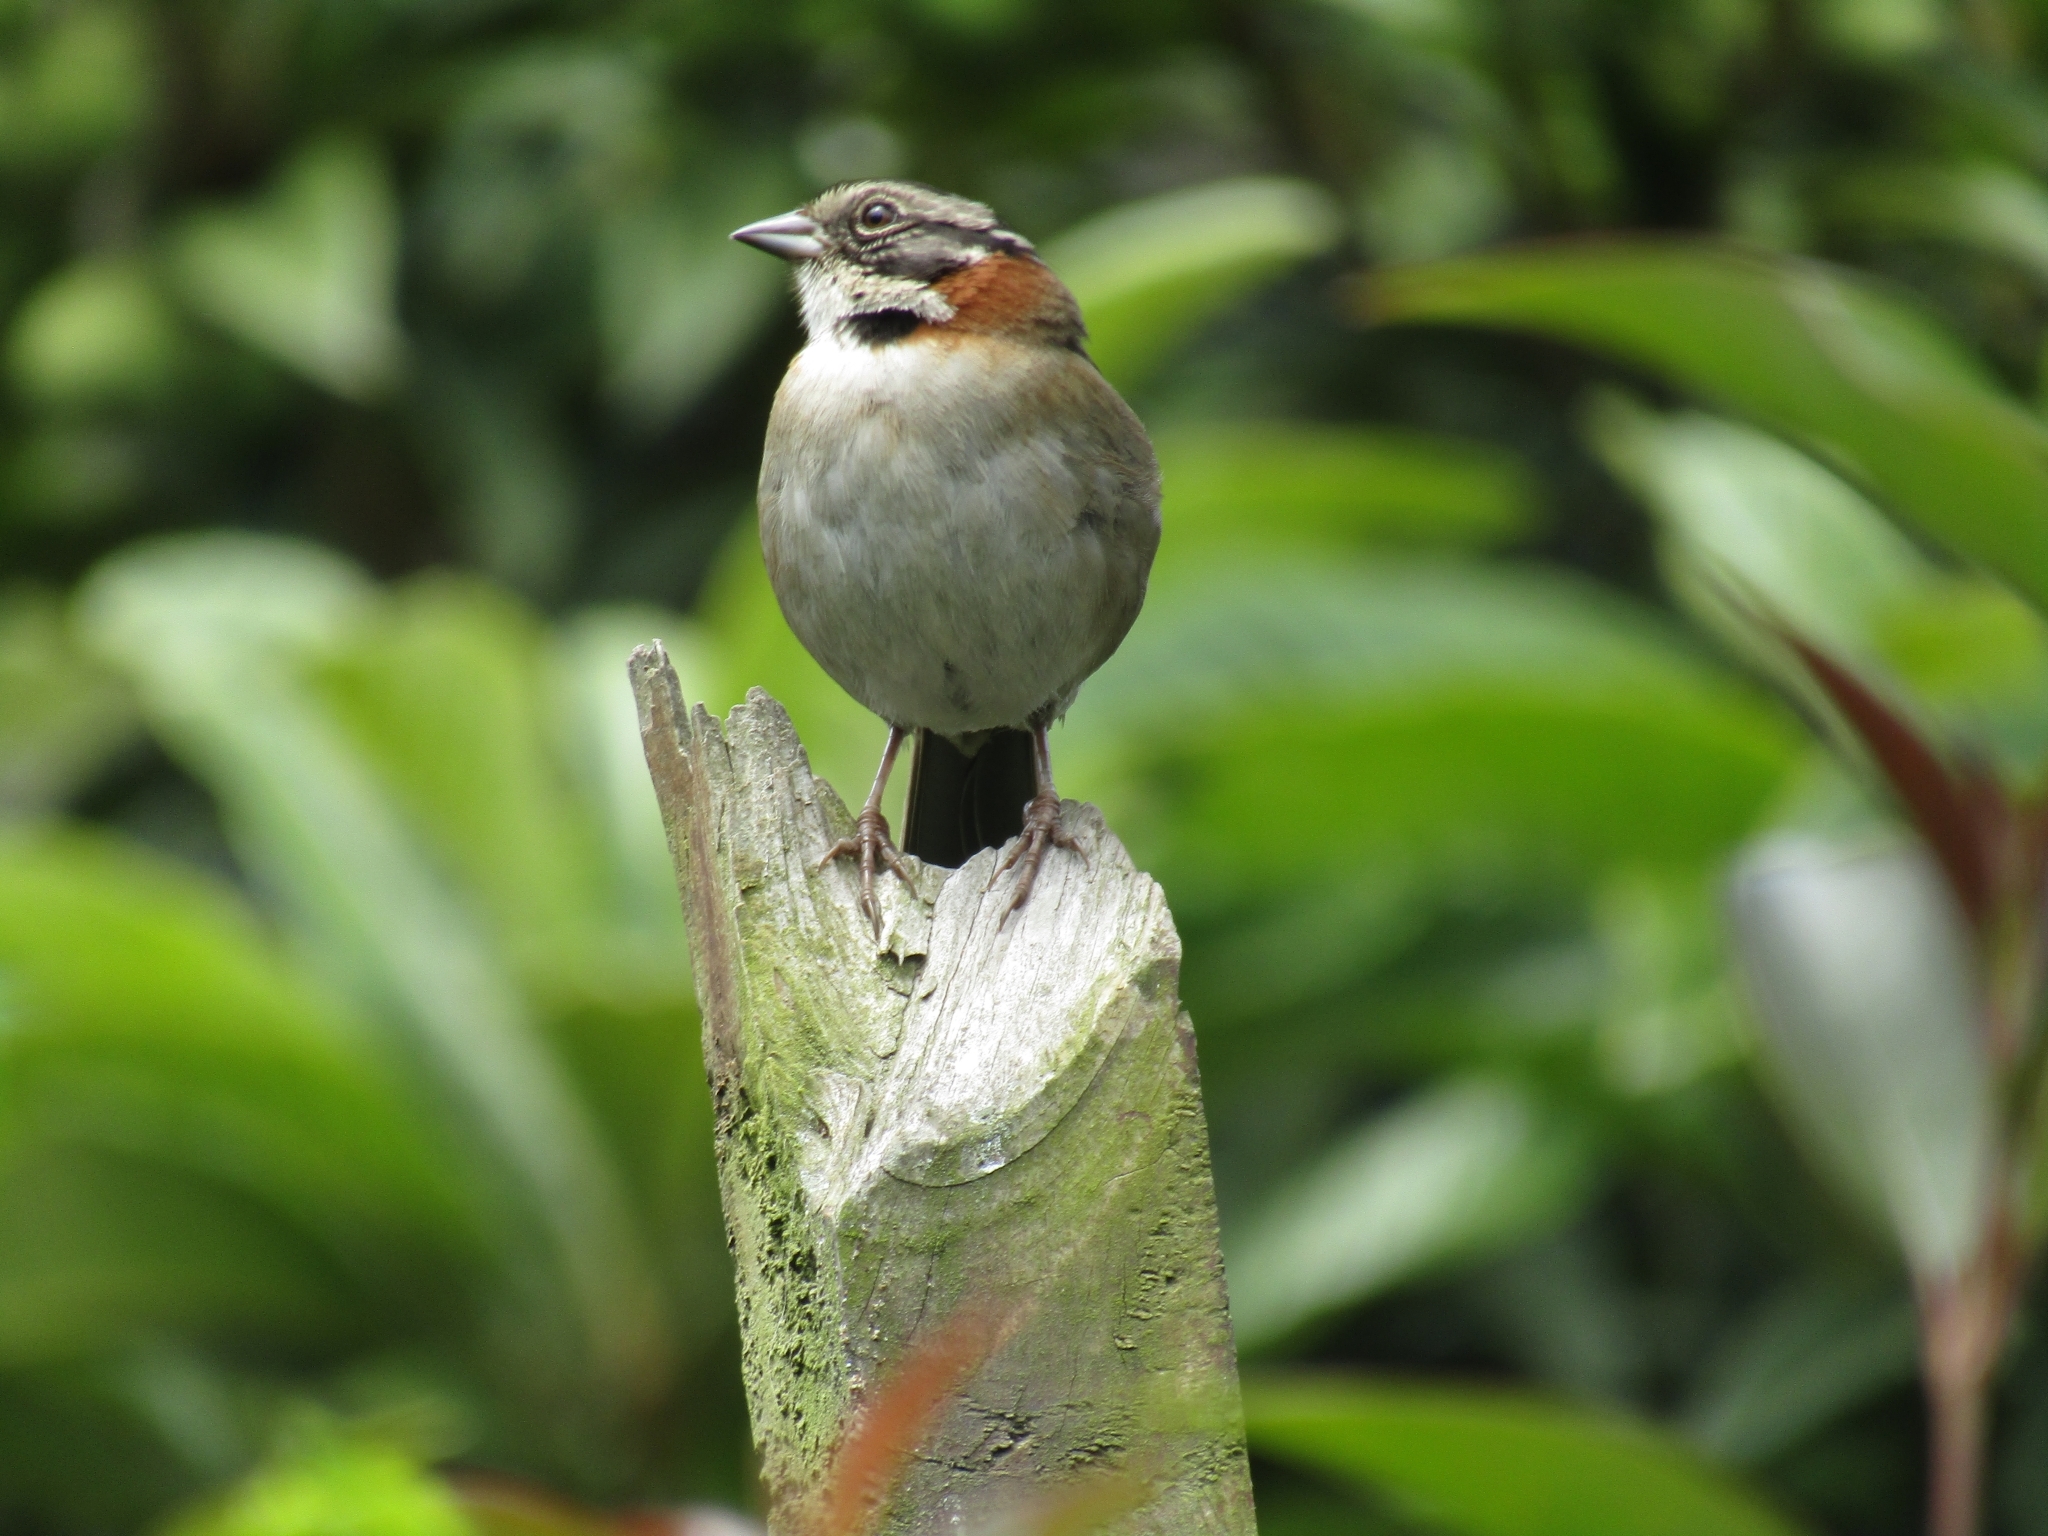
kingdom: Animalia
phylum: Chordata
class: Aves
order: Passeriformes
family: Passerellidae
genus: Zonotrichia
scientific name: Zonotrichia capensis
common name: Rufous-collared sparrow
